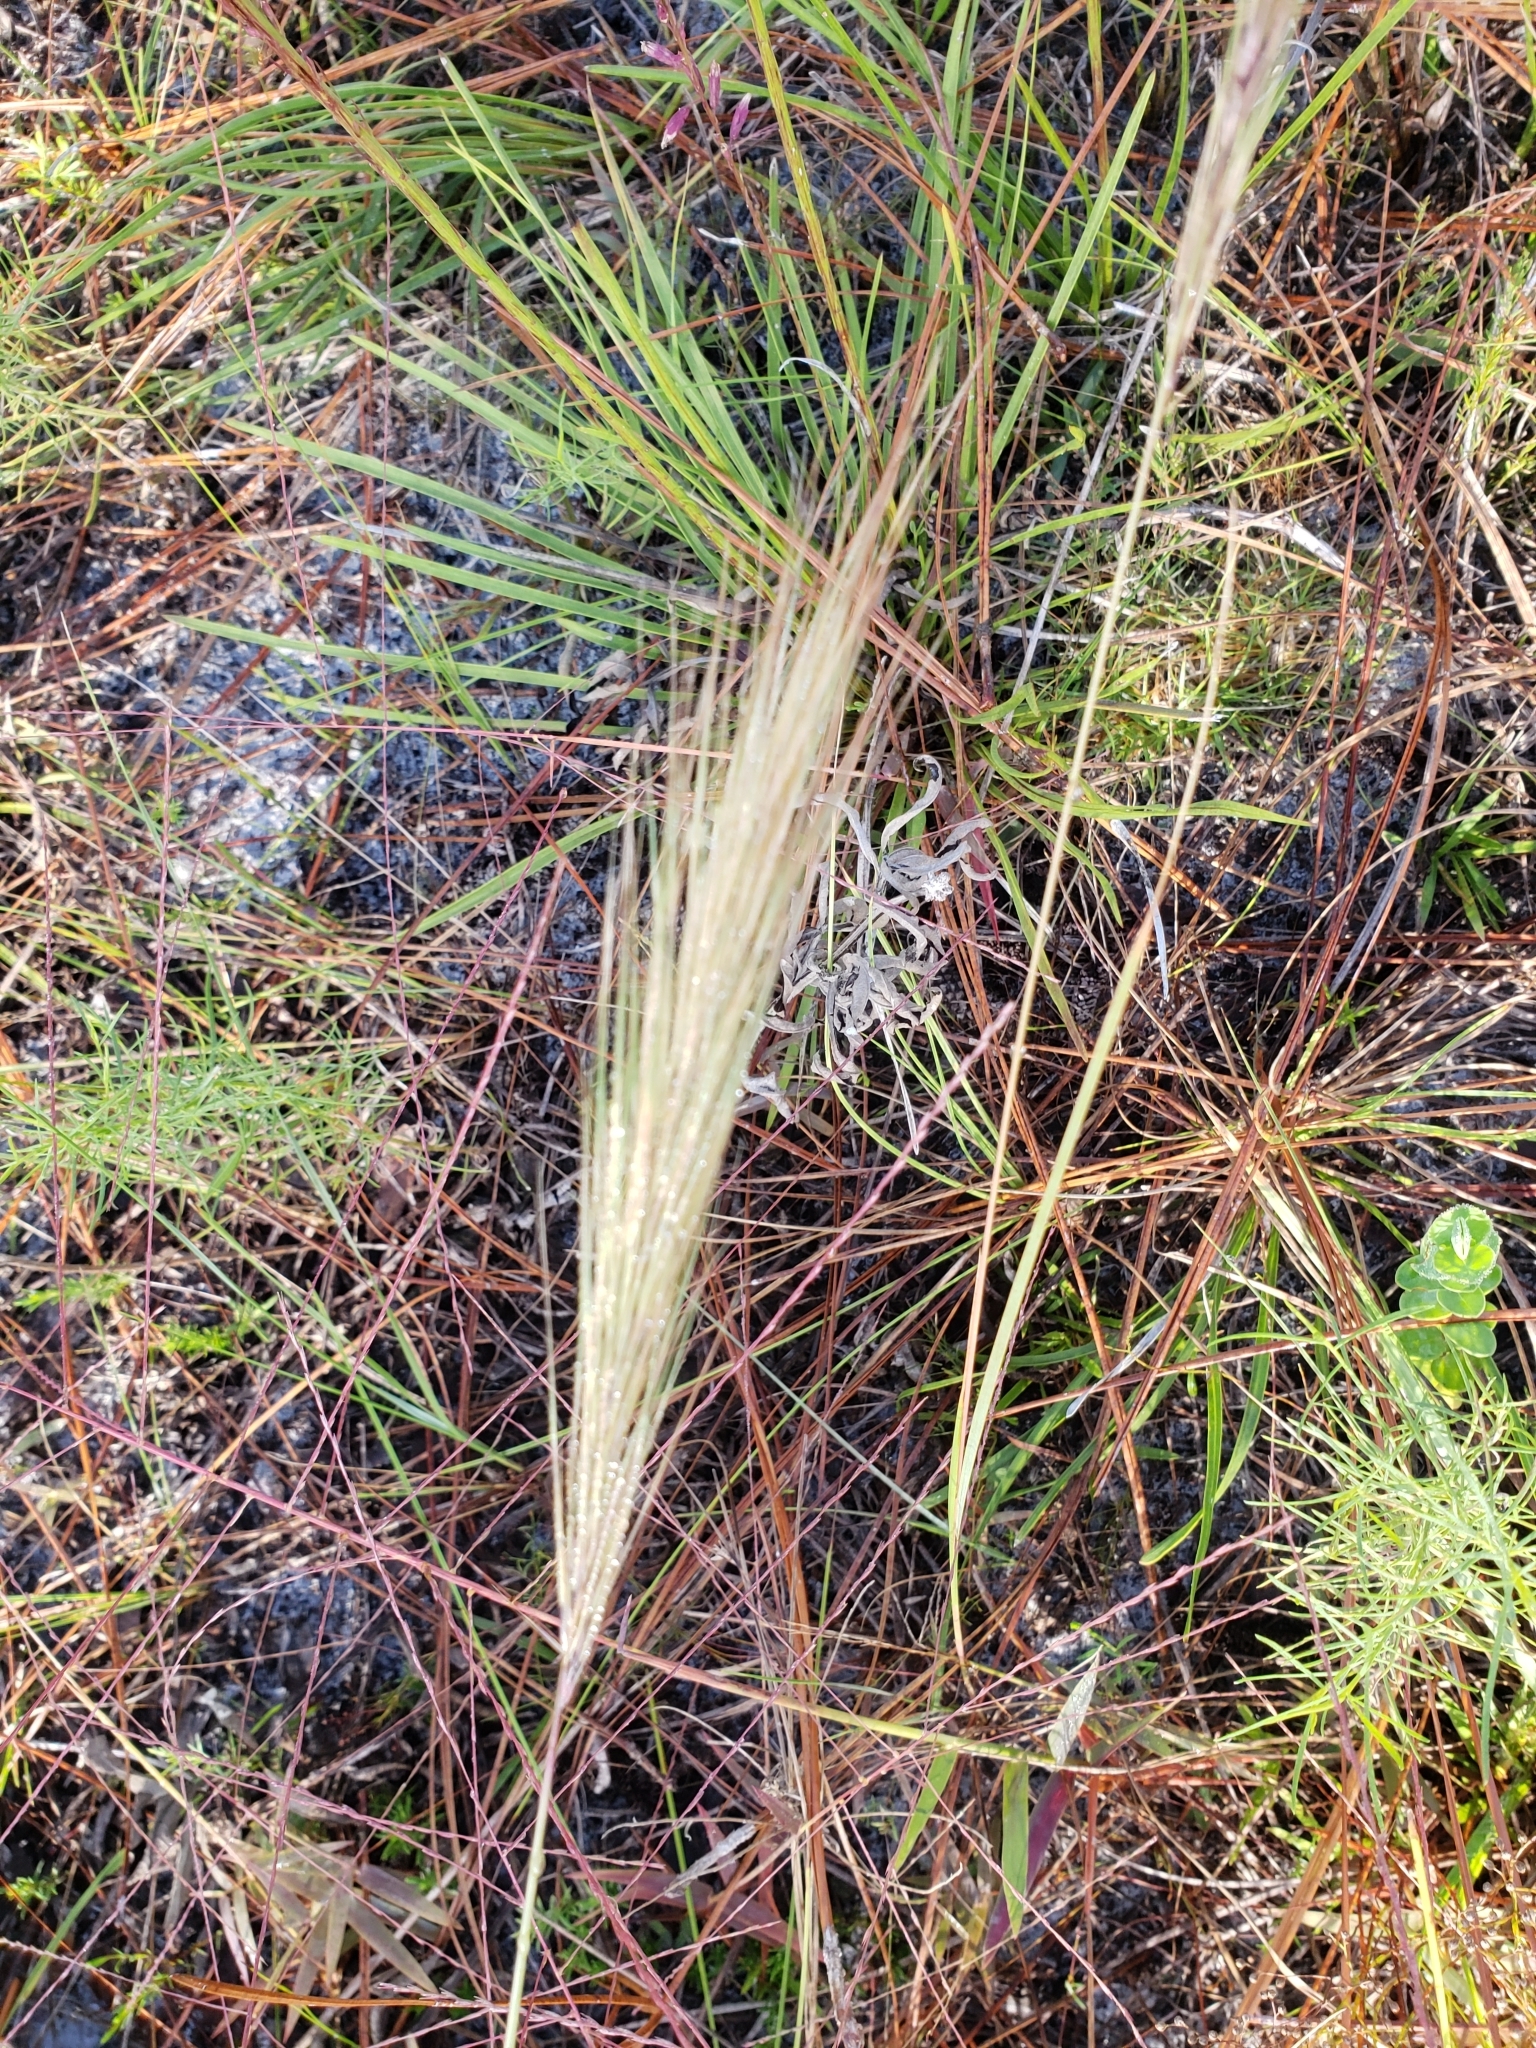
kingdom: Plantae
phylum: Tracheophyta
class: Liliopsida
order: Poales
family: Poaceae
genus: Aristida
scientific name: Aristida spiciformis
